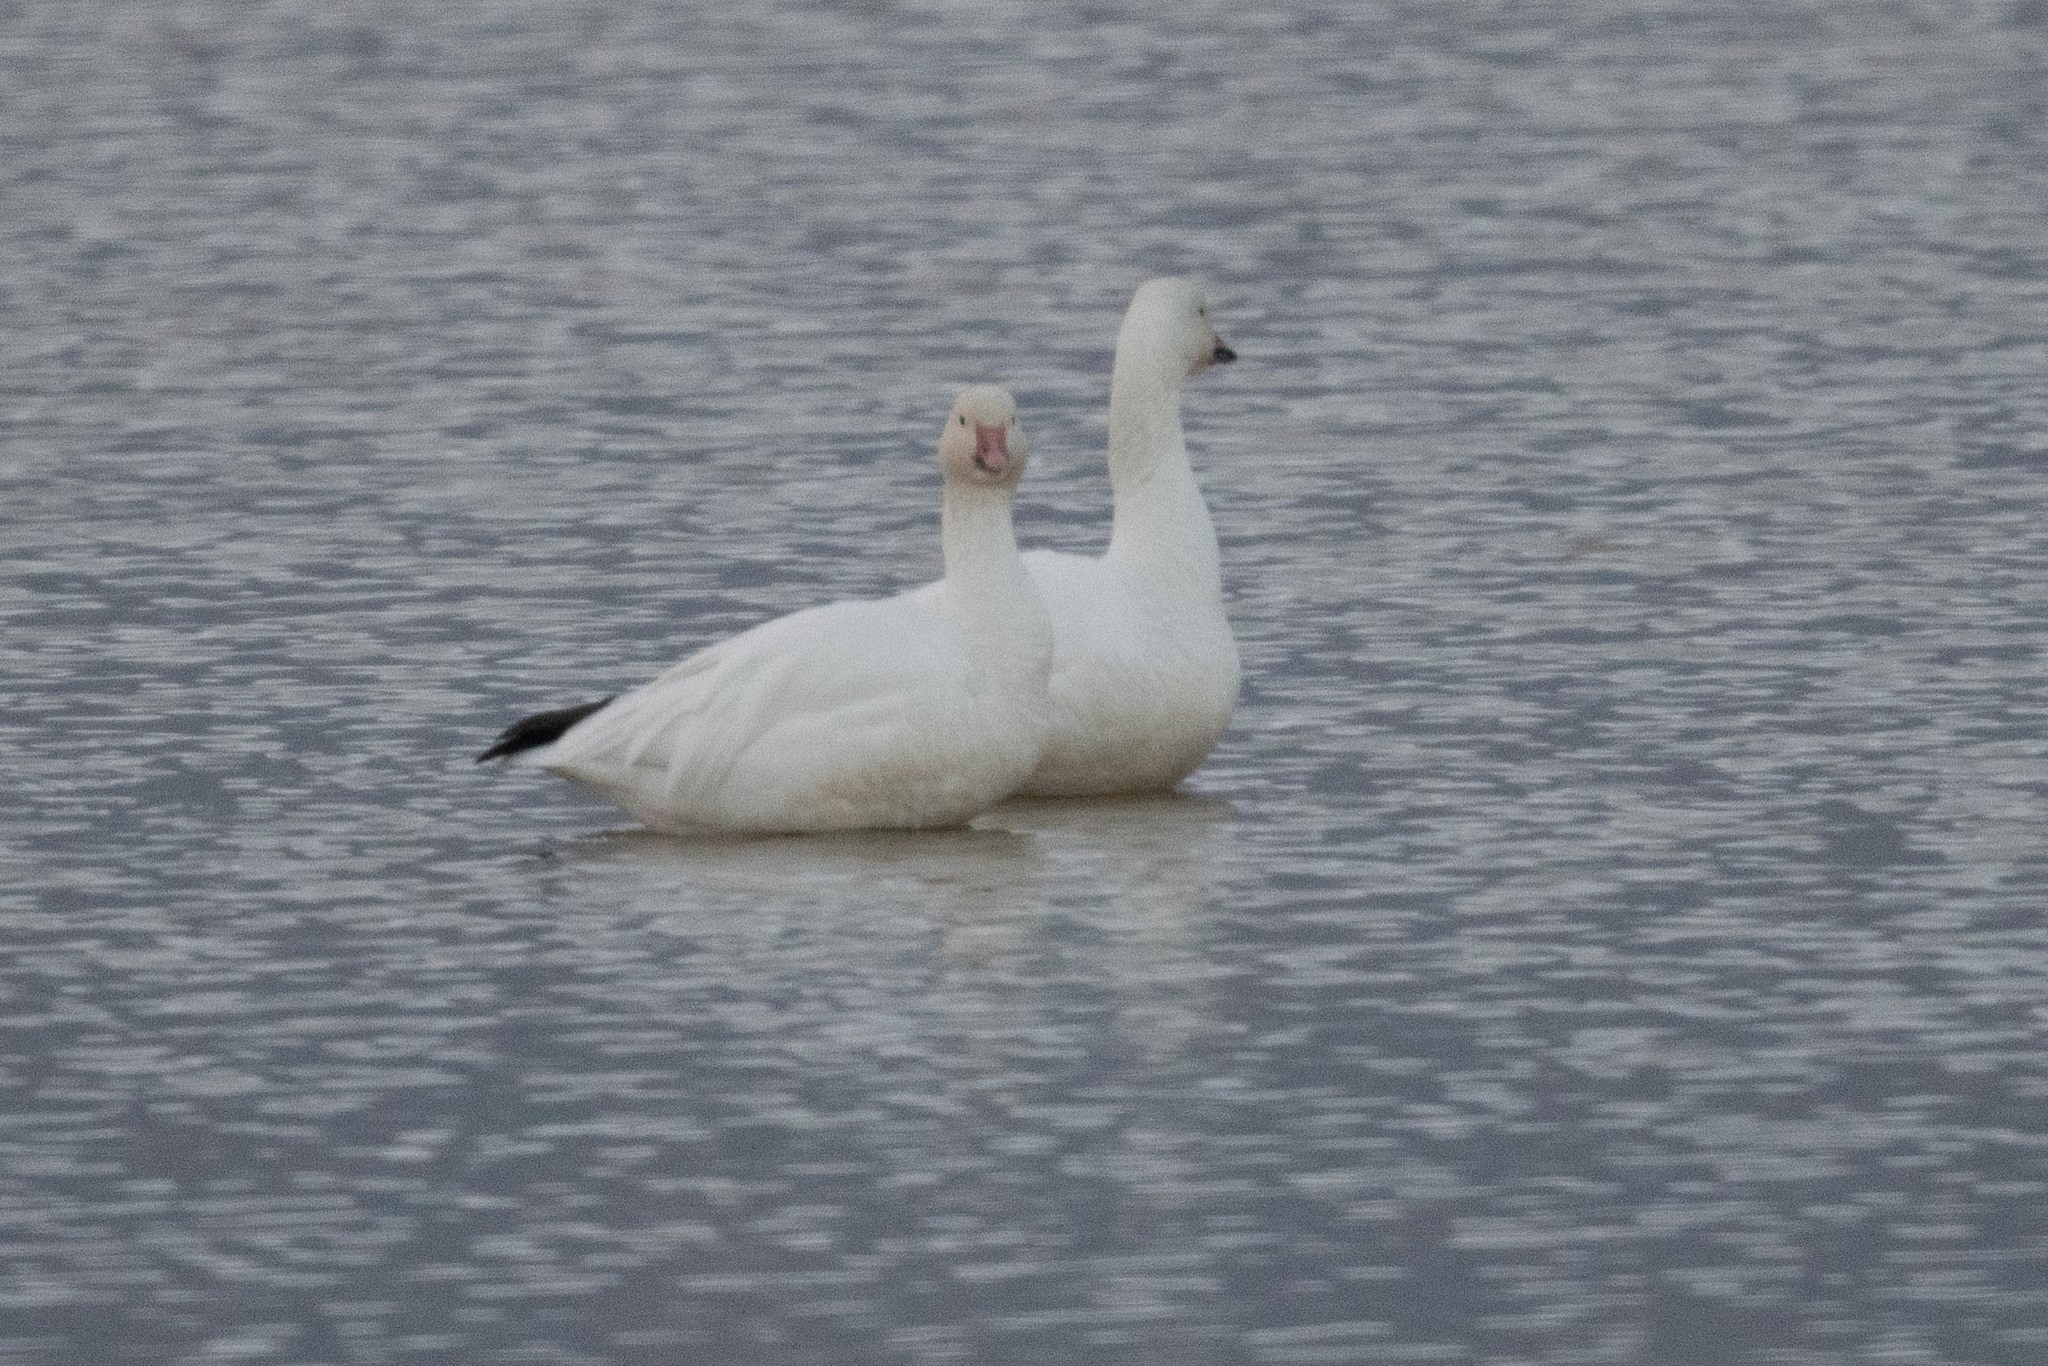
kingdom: Animalia
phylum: Chordata
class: Aves
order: Anseriformes
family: Anatidae
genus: Anser
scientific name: Anser caerulescens
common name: Snow goose
